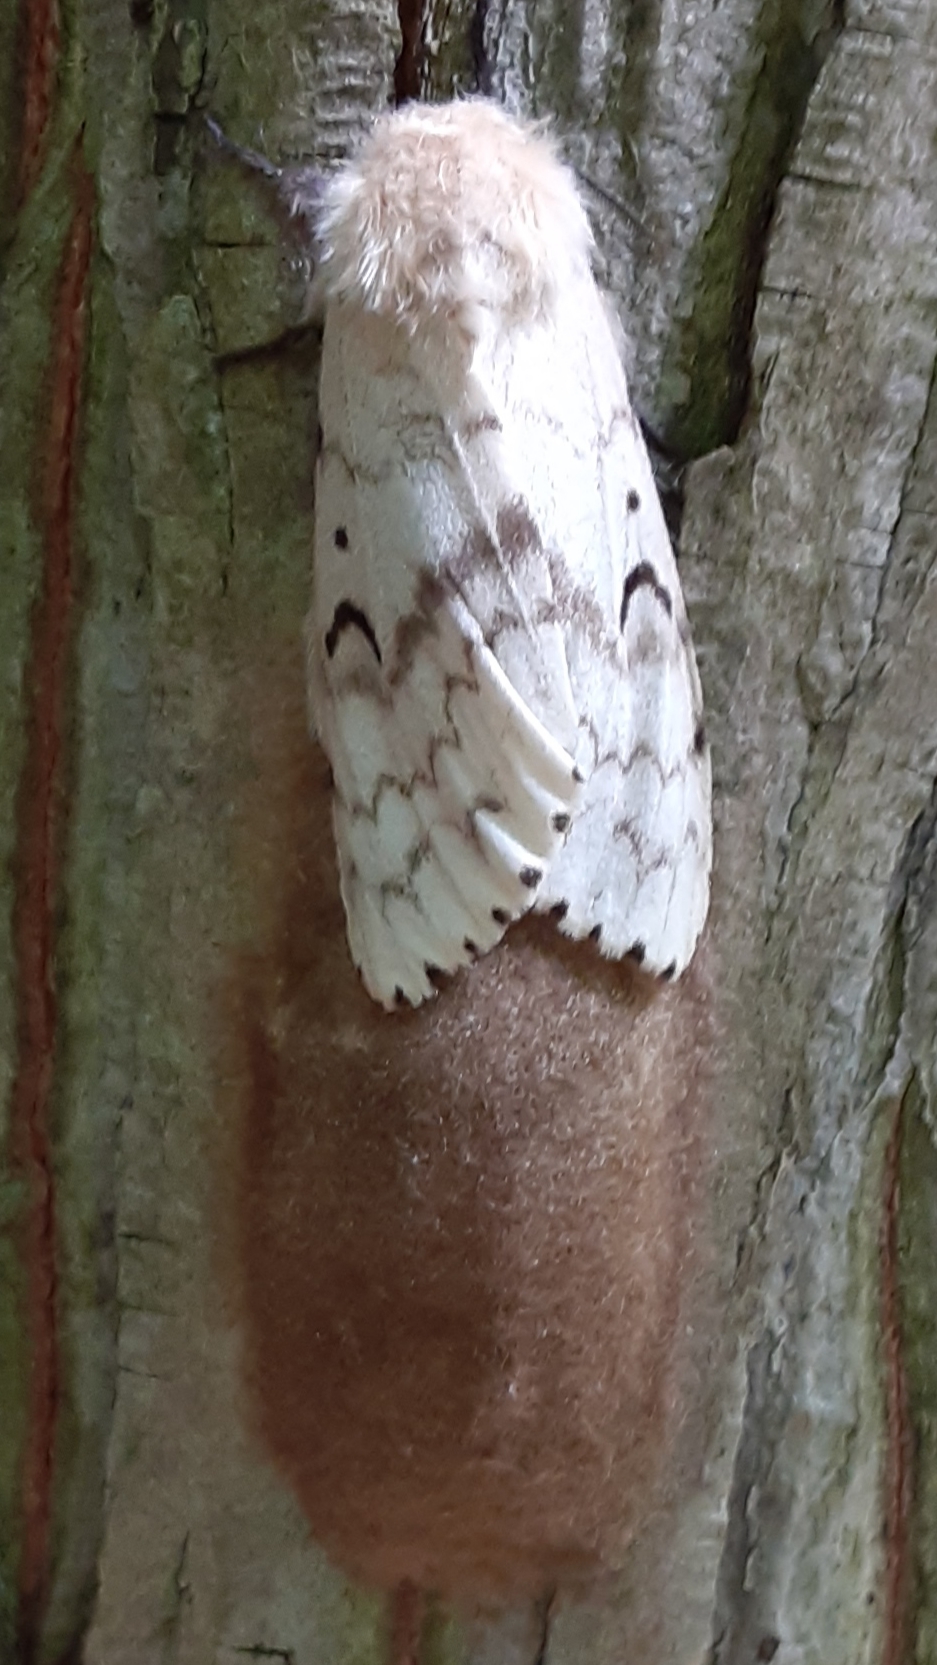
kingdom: Animalia
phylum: Arthropoda
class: Insecta
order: Lepidoptera
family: Erebidae
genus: Lymantria
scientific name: Lymantria dispar
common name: Gypsy moth
